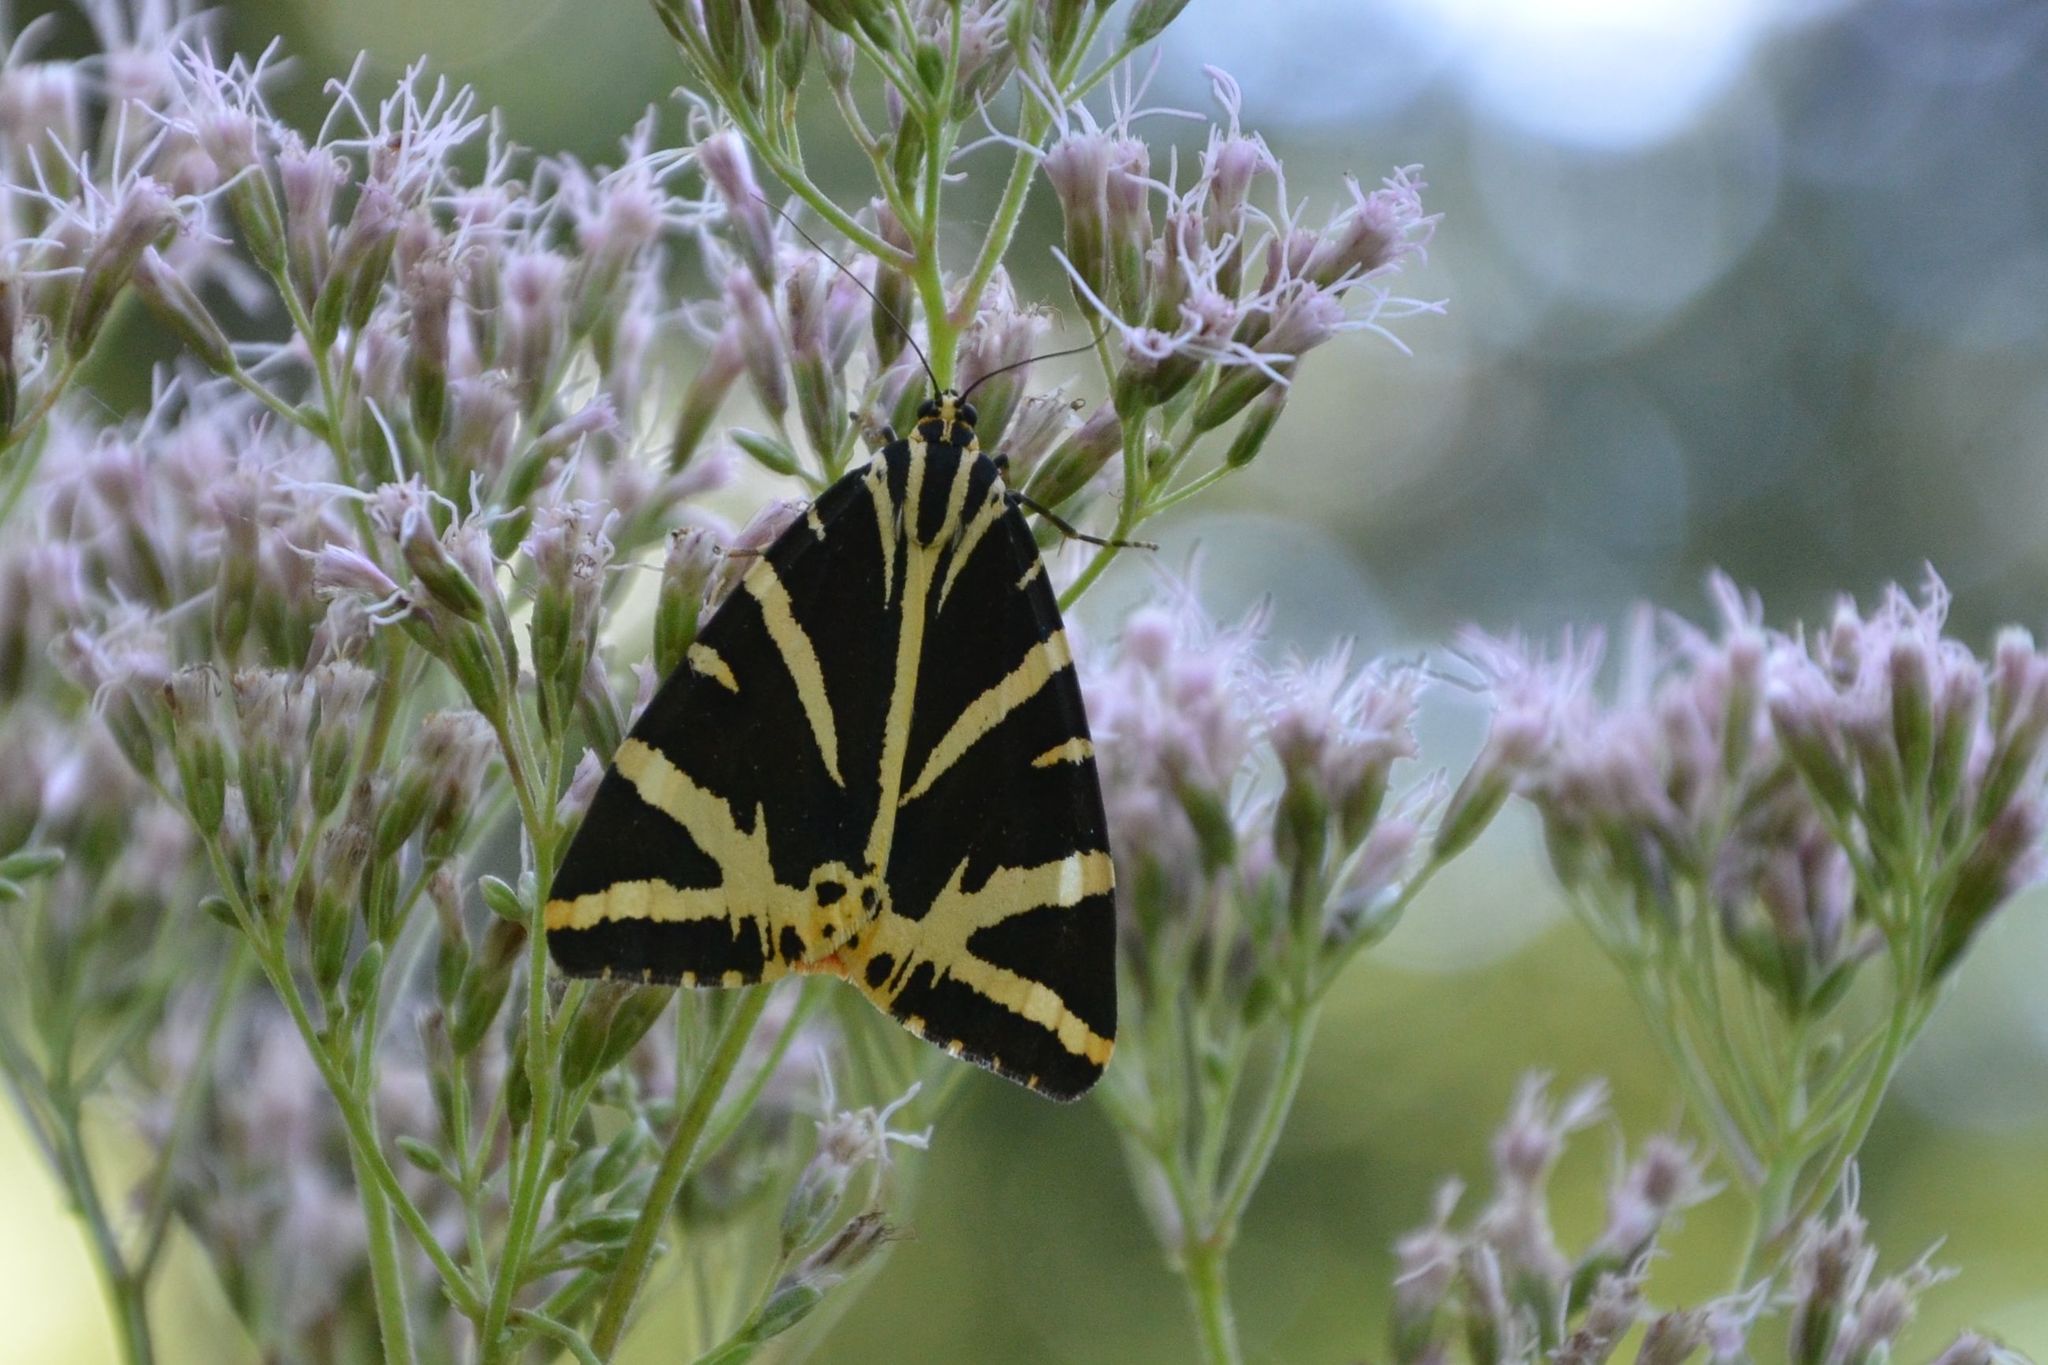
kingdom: Animalia
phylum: Arthropoda
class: Insecta
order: Lepidoptera
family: Erebidae
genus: Euplagia
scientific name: Euplagia quadripunctaria
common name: Jersey tiger
